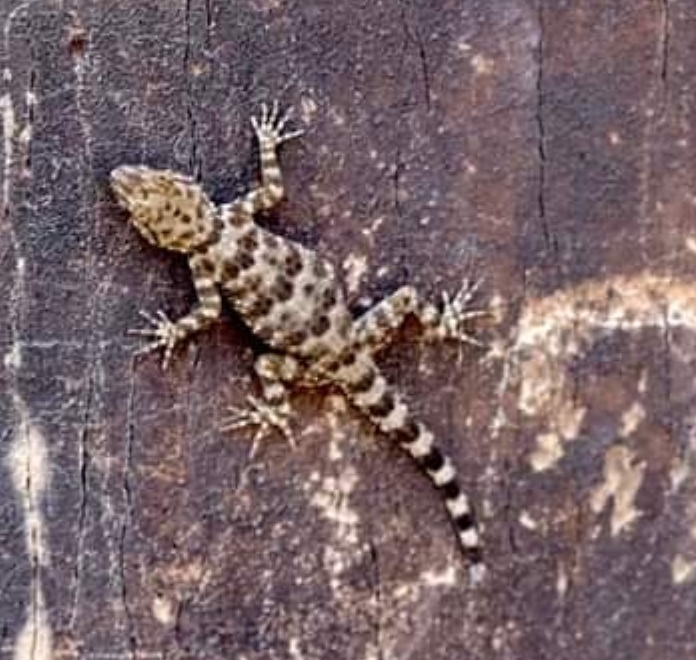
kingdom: Animalia
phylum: Chordata
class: Squamata
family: Gekkonidae
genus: Tenuidactylus
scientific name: Tenuidactylus caspius
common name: Caspian bent-toed gecko
